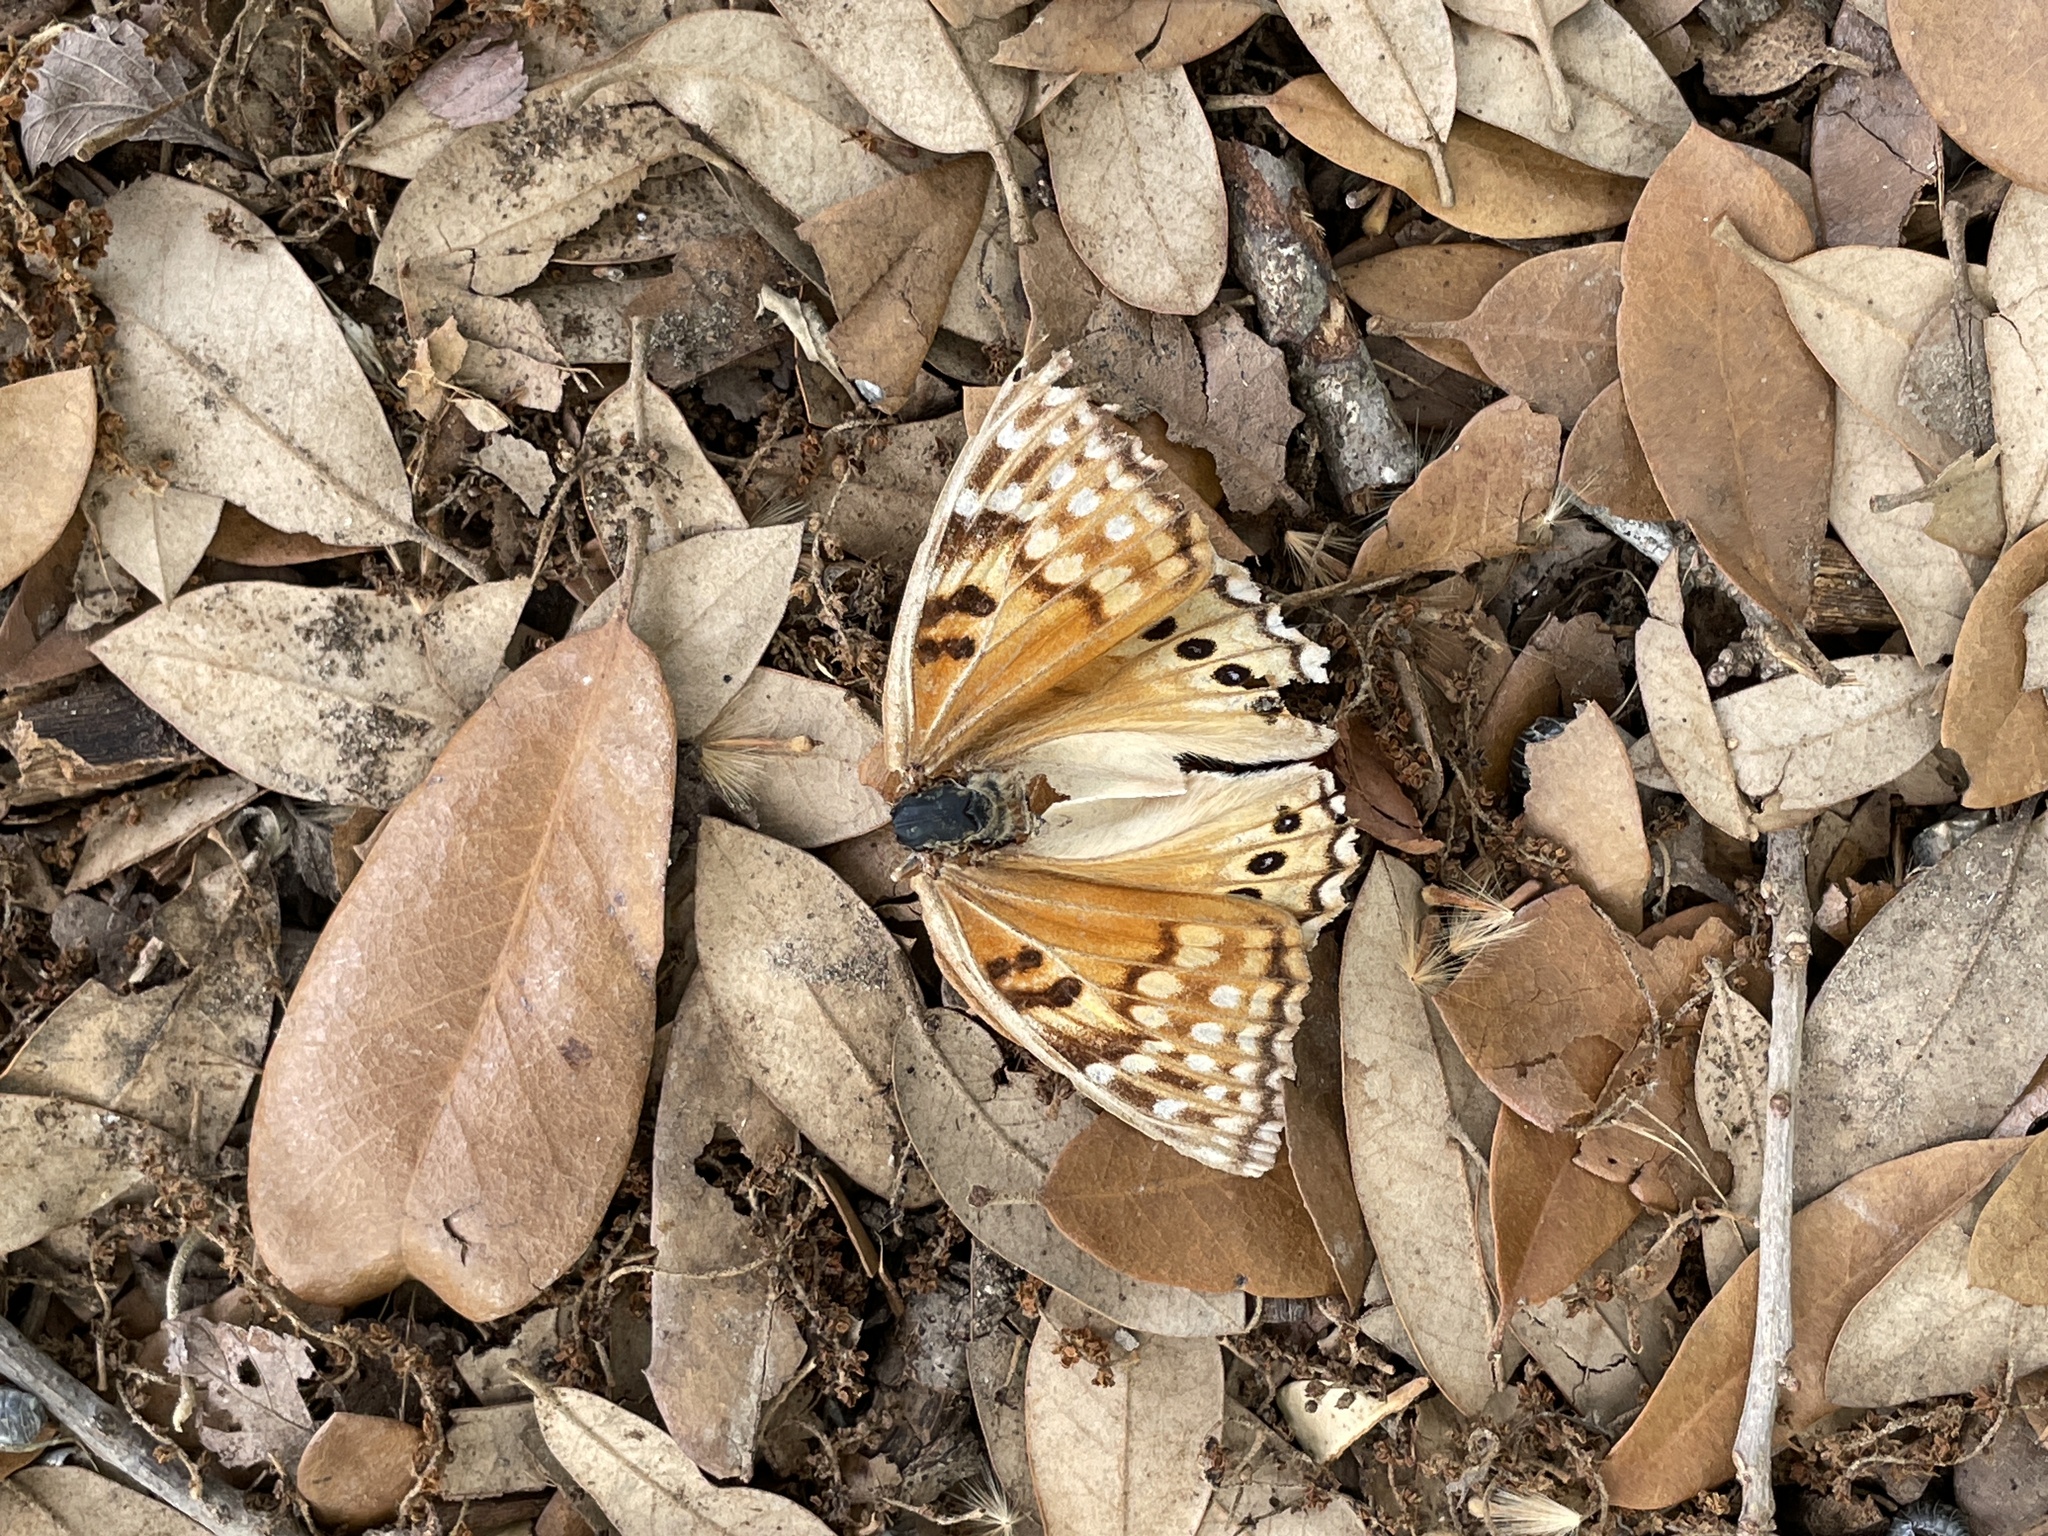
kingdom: Animalia
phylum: Arthropoda
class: Insecta
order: Lepidoptera
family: Nymphalidae
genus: Asterocampa
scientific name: Asterocampa clyton
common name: Tawny emperor
